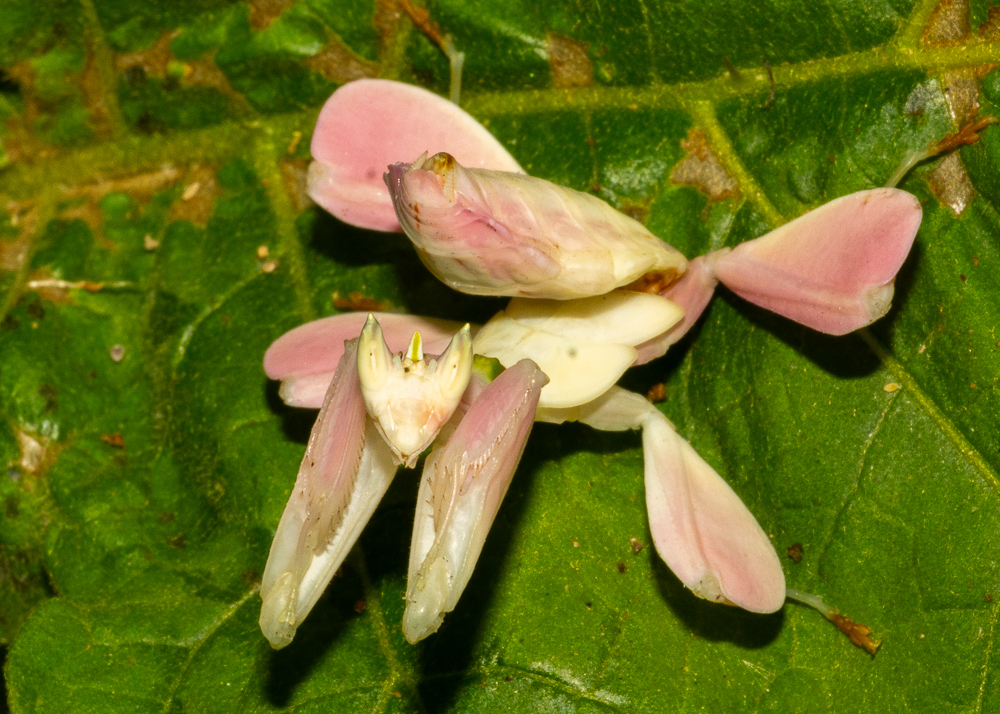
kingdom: Animalia
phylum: Arthropoda
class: Insecta
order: Mantodea
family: Hymenopodidae
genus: Hymenopus
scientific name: Hymenopus coronatus
